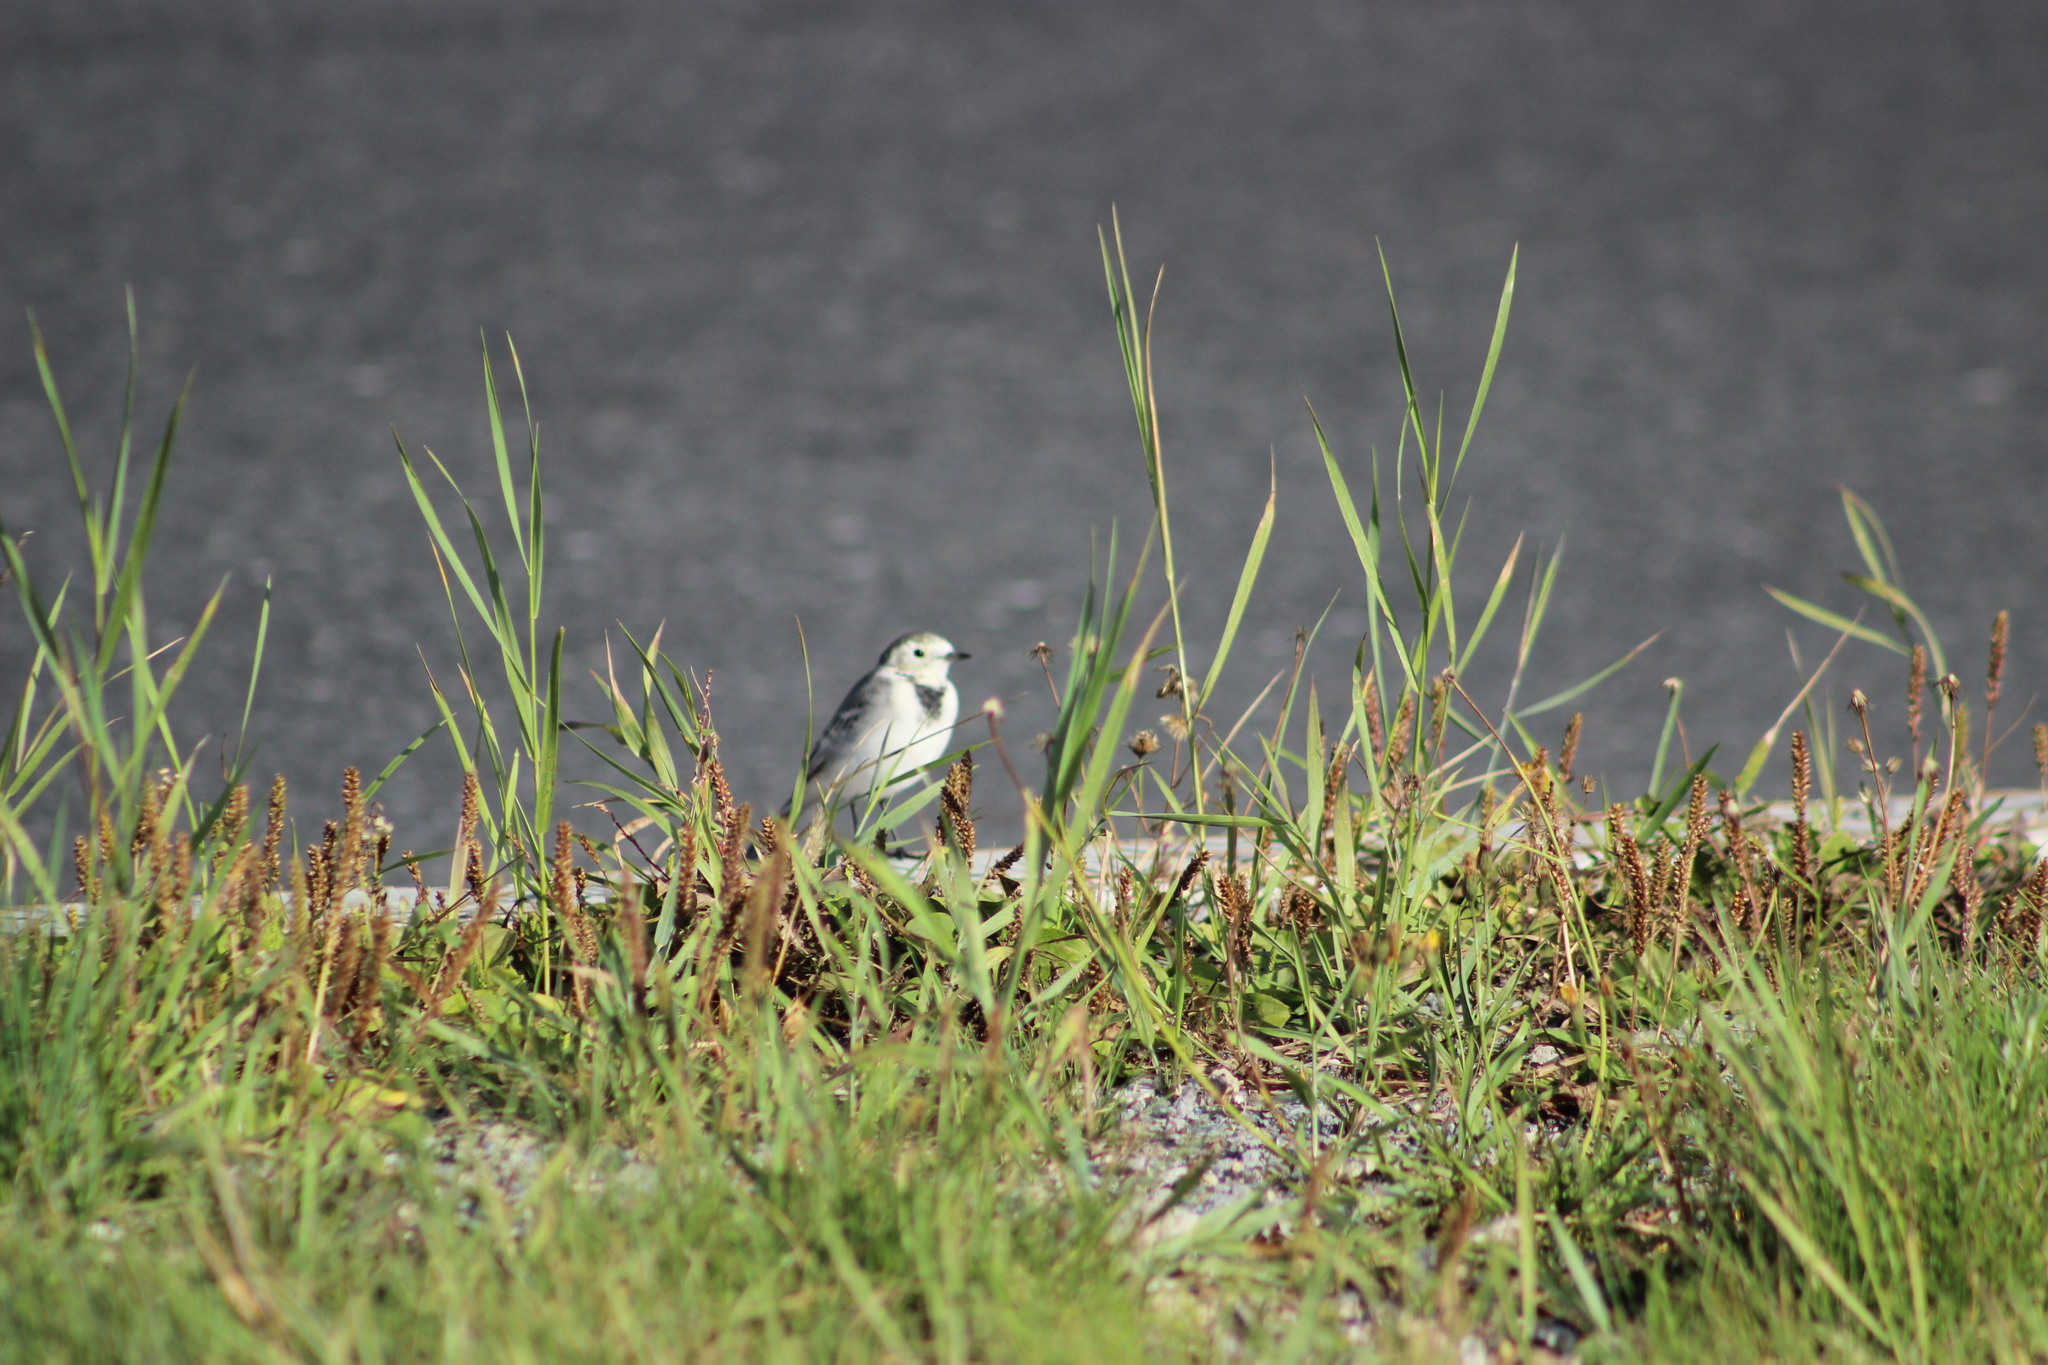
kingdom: Animalia
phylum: Chordata
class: Aves
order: Passeriformes
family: Motacillidae
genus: Motacilla
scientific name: Motacilla alba
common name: White wagtail
